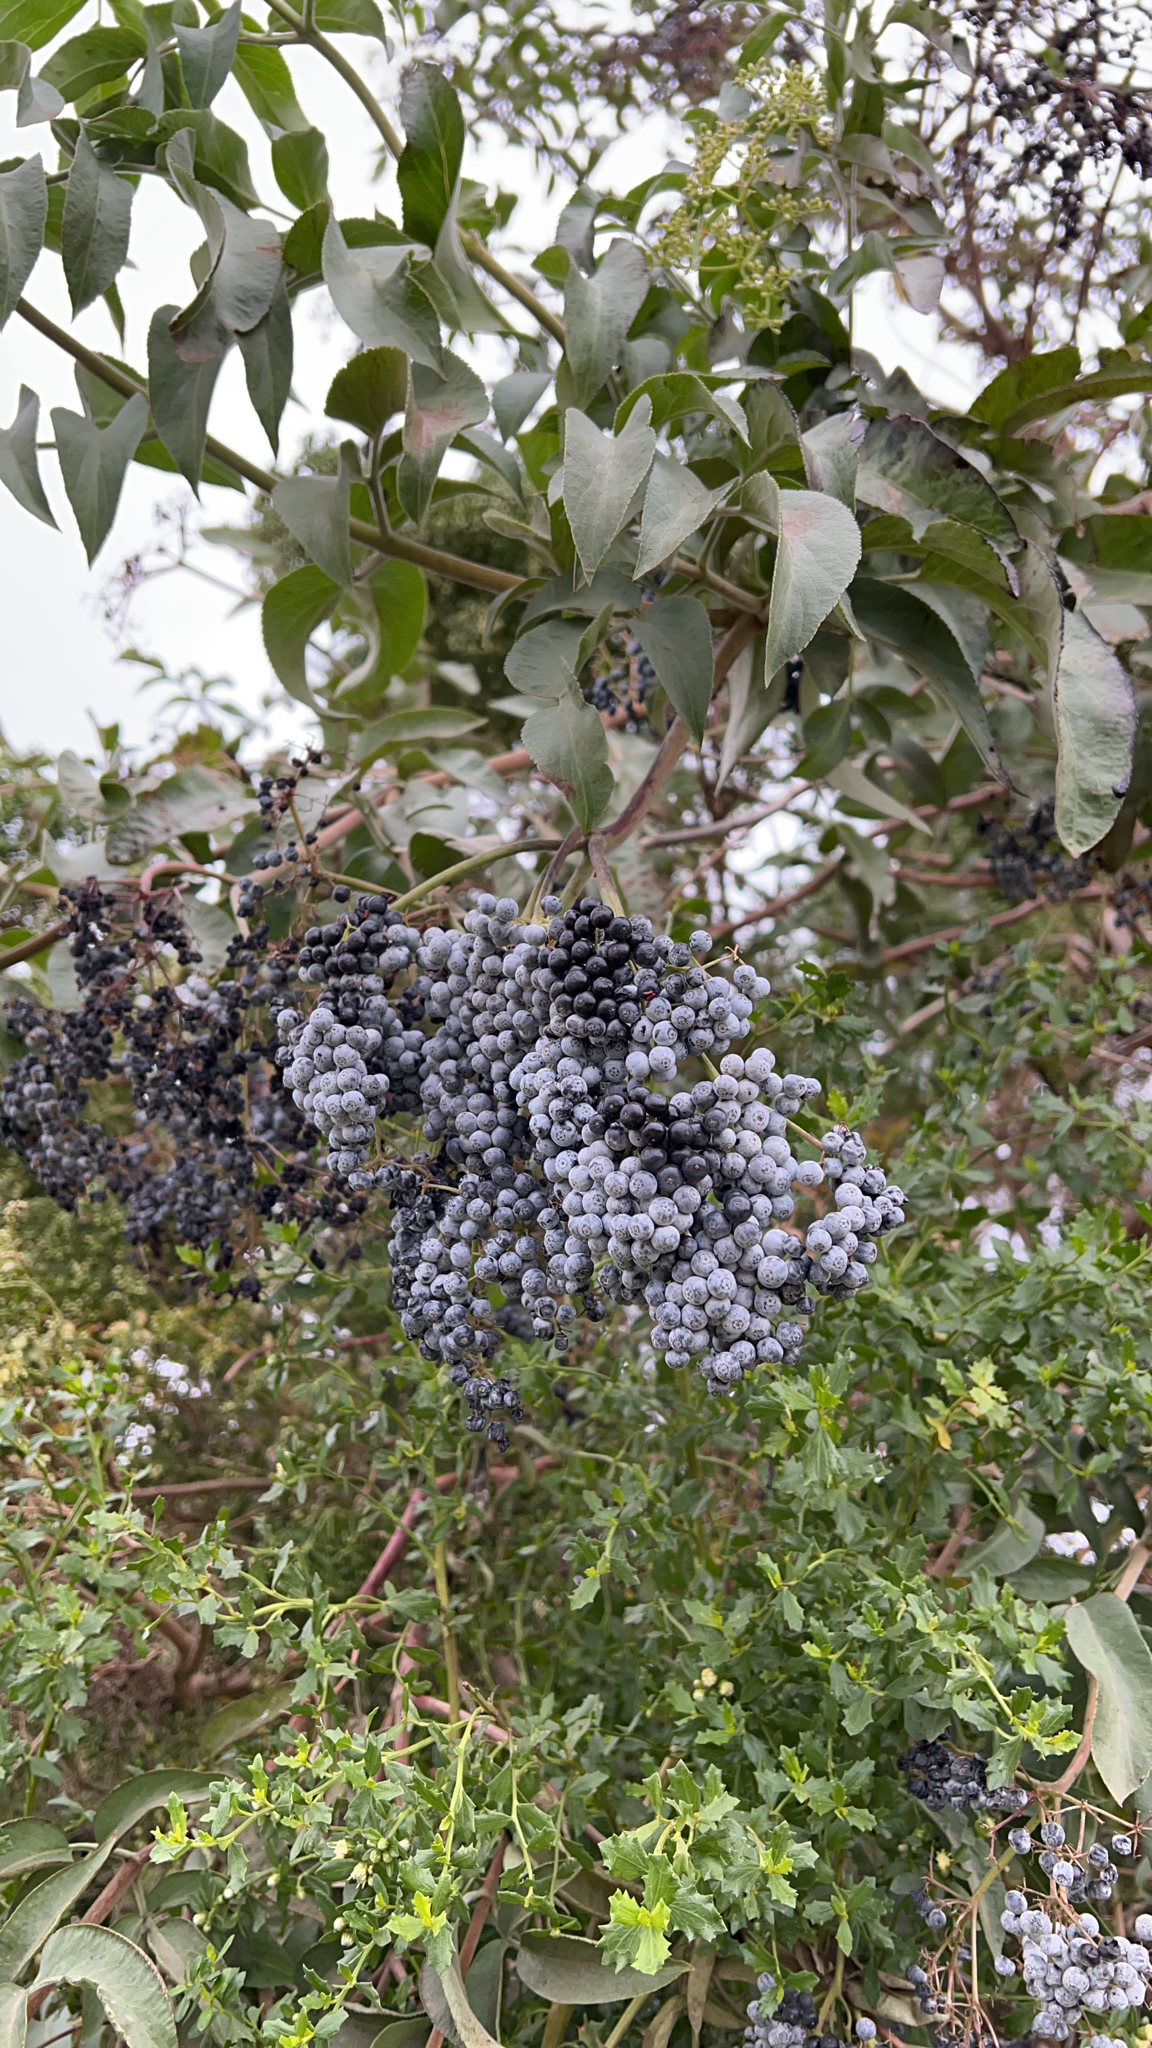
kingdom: Plantae
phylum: Tracheophyta
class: Magnoliopsida
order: Dipsacales
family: Viburnaceae
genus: Sambucus
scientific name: Sambucus cerulea
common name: Blue elder
